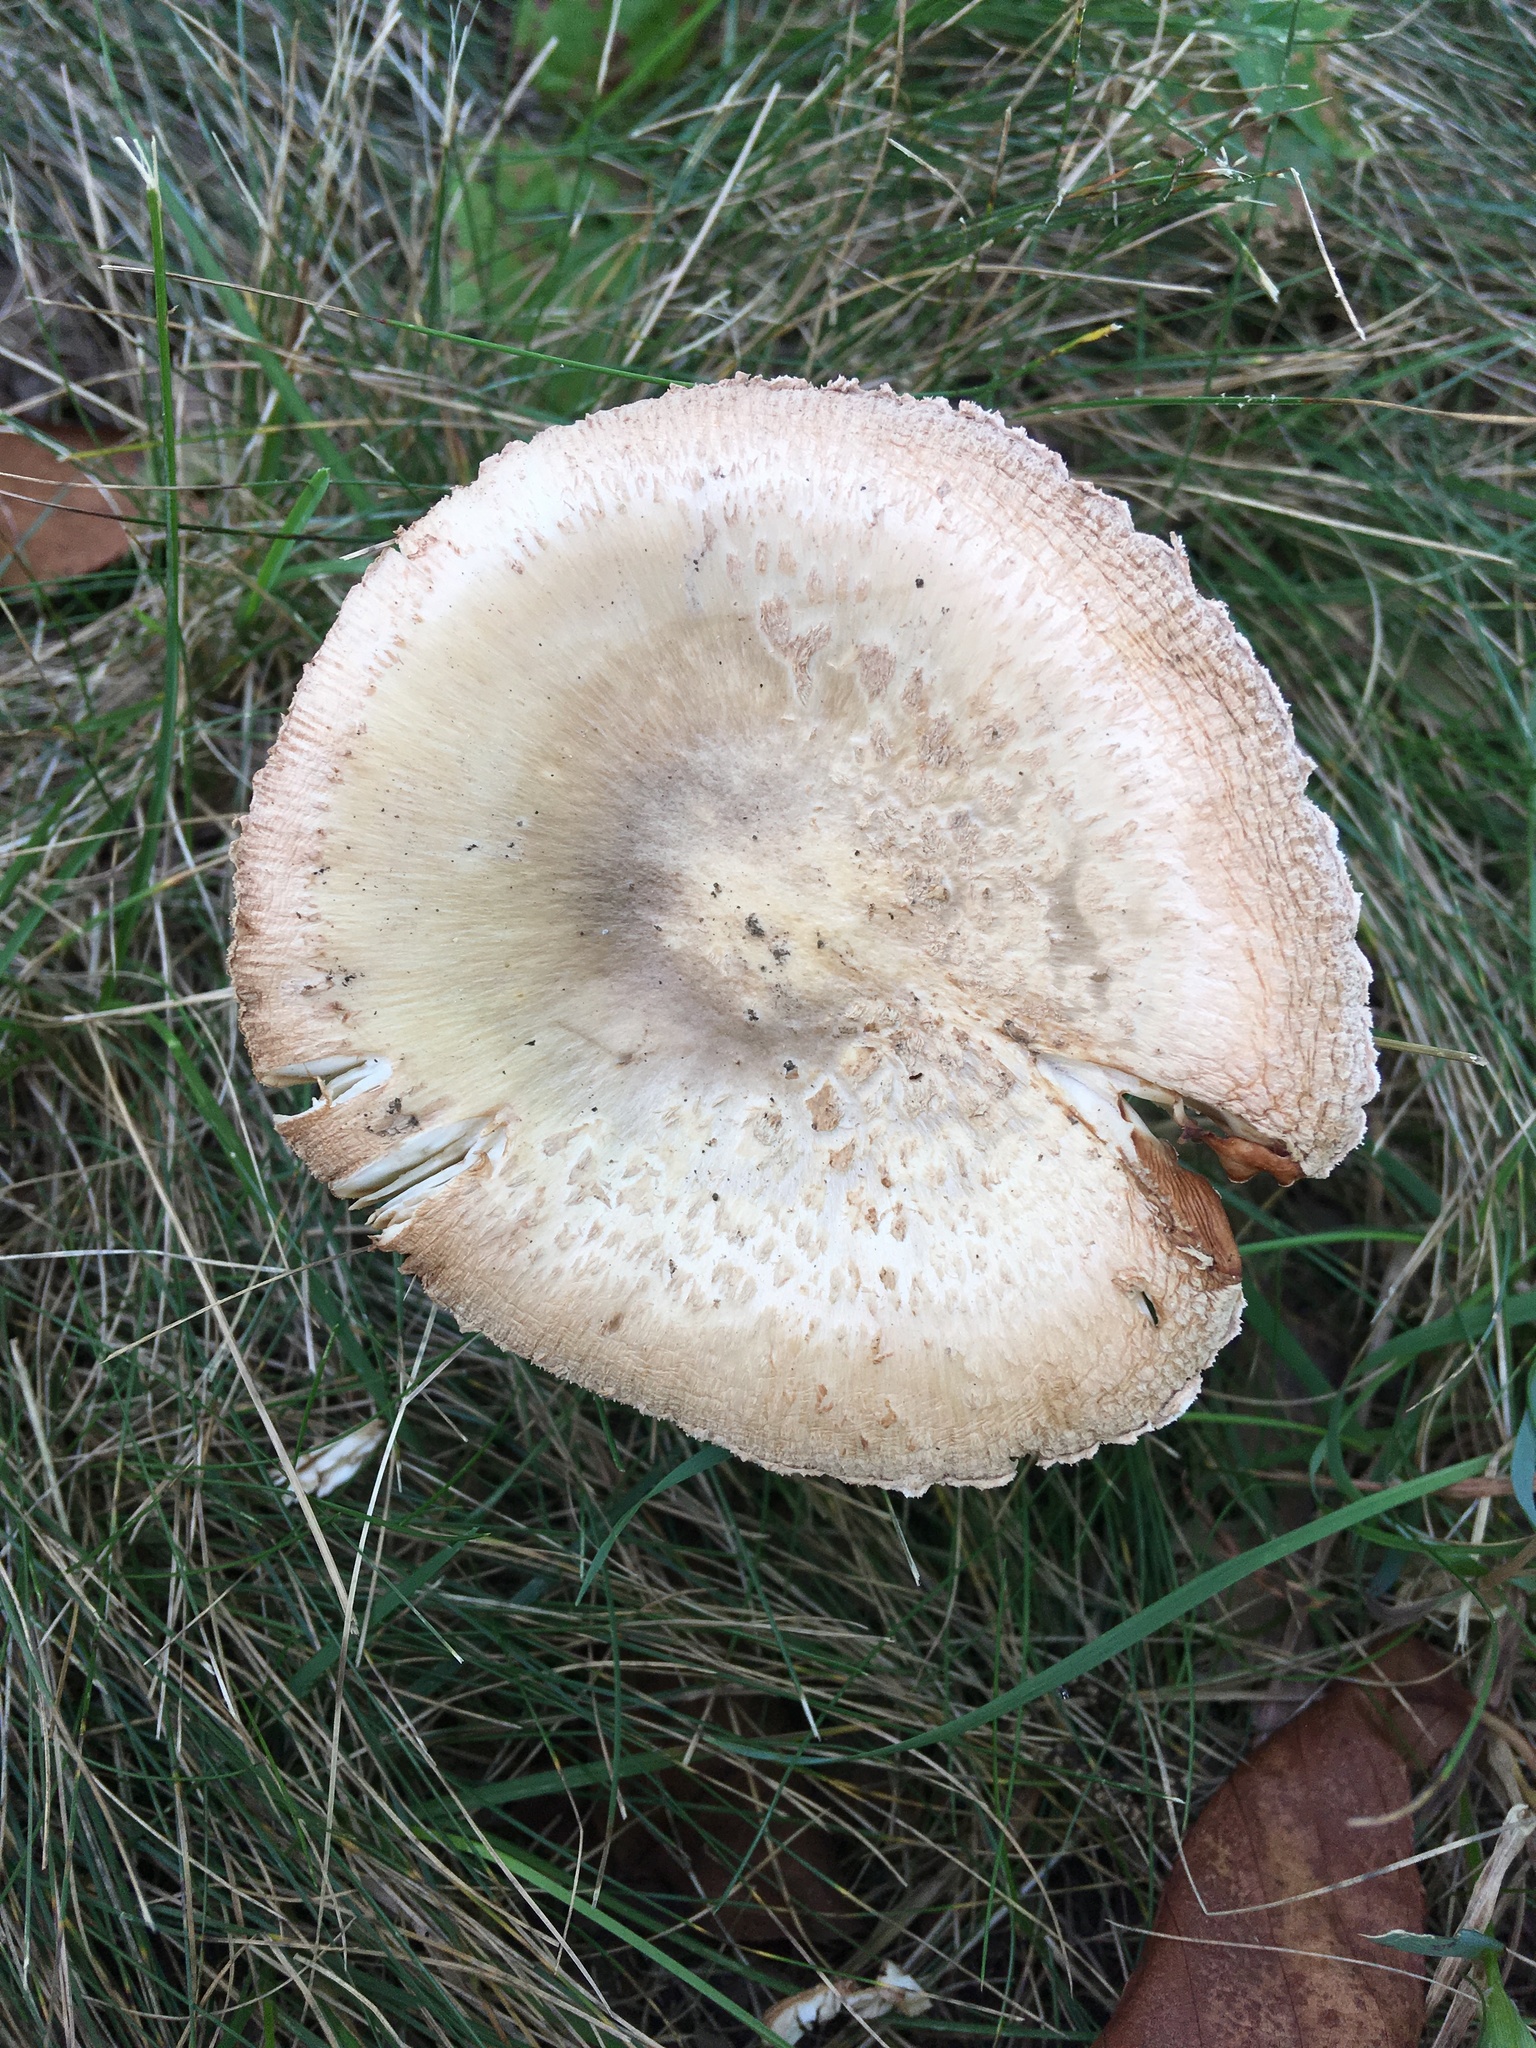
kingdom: Fungi
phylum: Basidiomycota
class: Agaricomycetes
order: Agaricales
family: Amanitaceae
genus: Amanita
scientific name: Amanita peckiana
